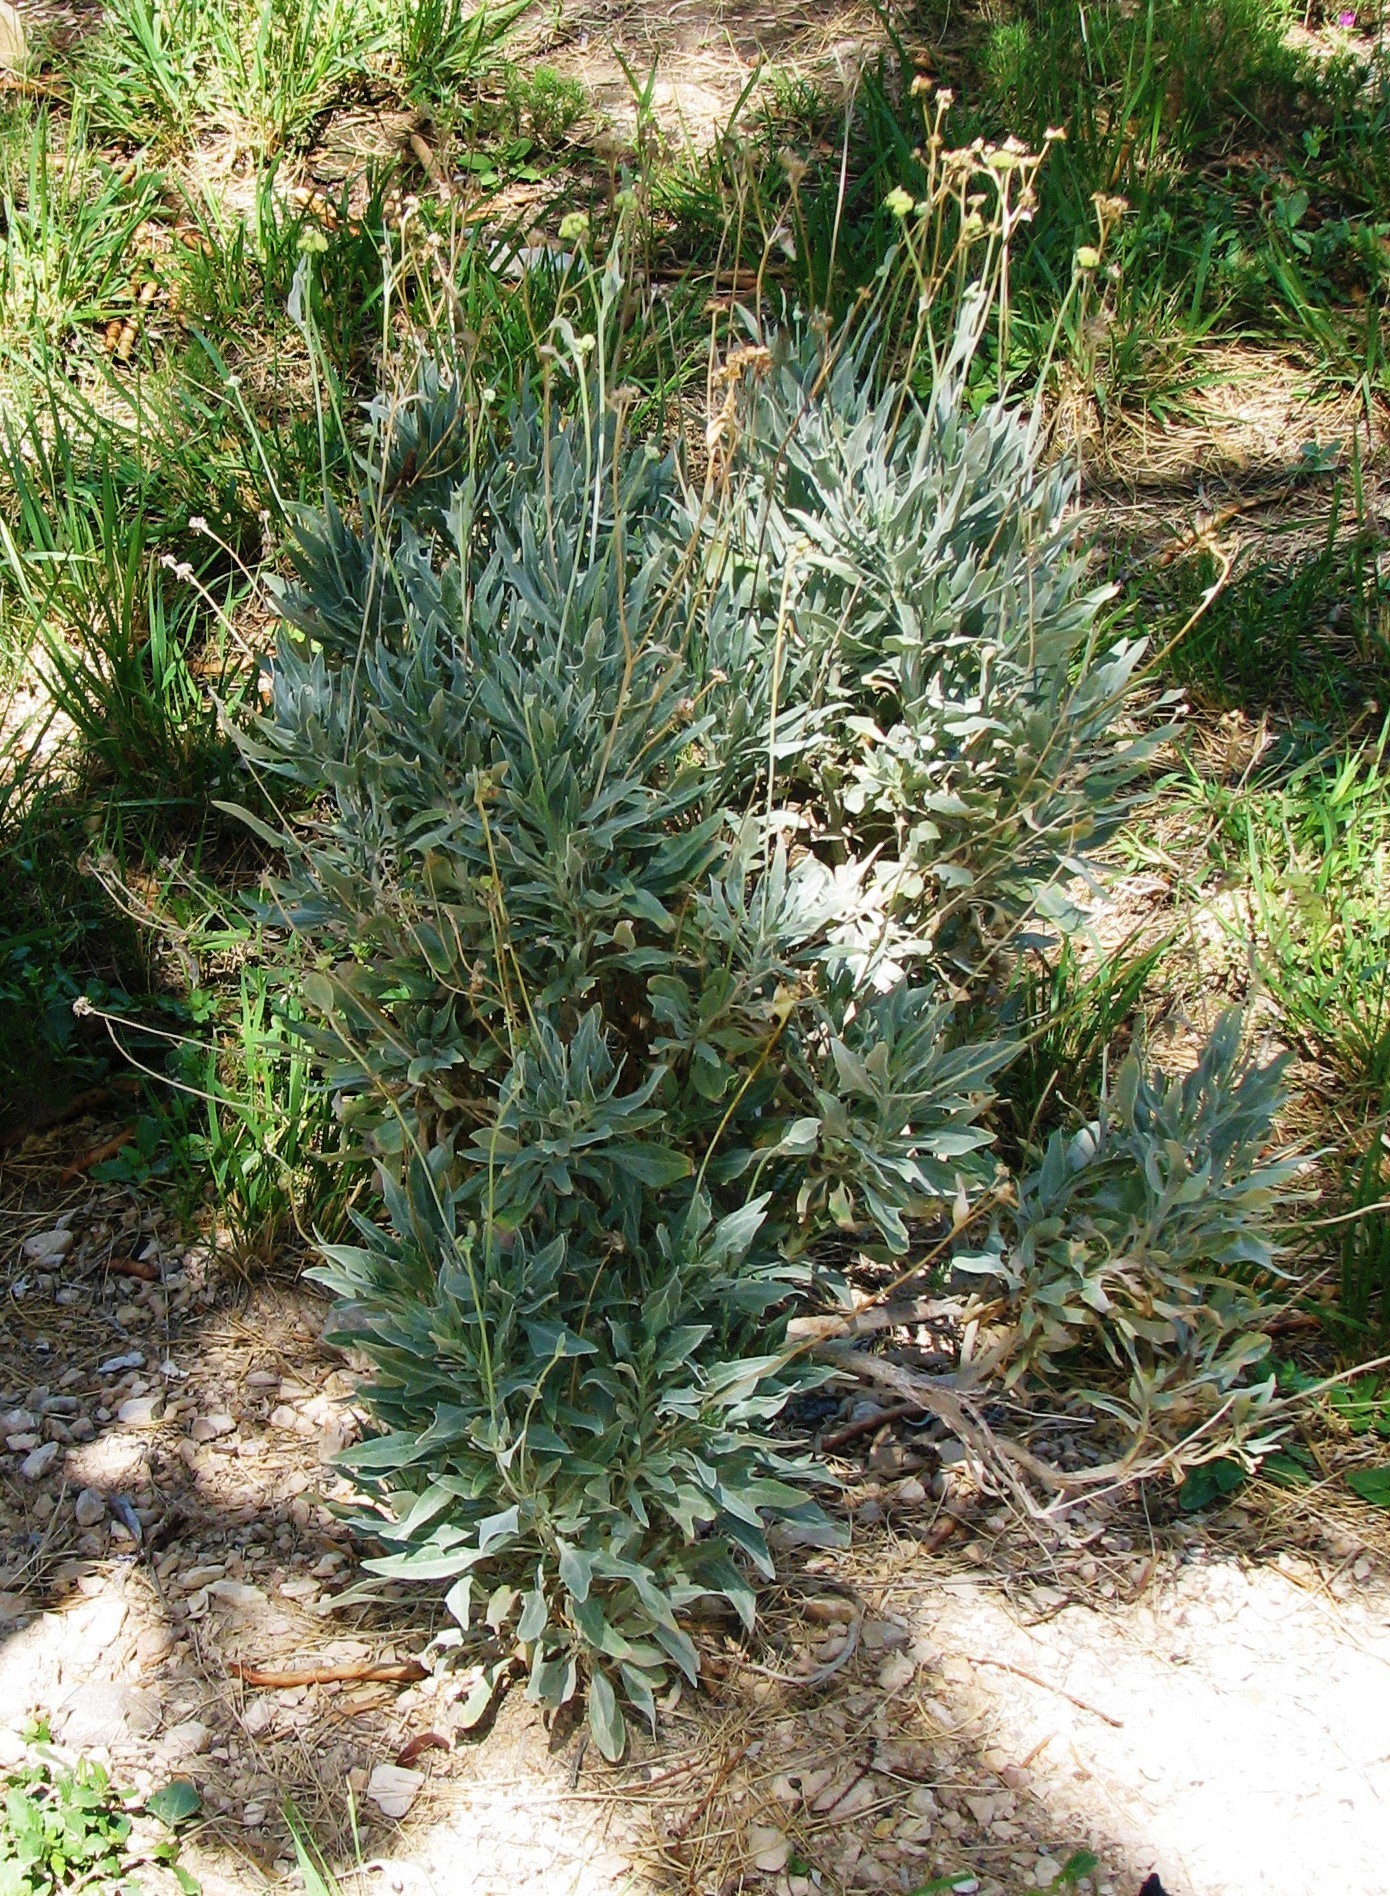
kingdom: Plantae
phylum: Tracheophyta
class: Magnoliopsida
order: Asterales
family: Asteraceae
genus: Parthenium
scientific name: Parthenium argentatum
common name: Guayule
